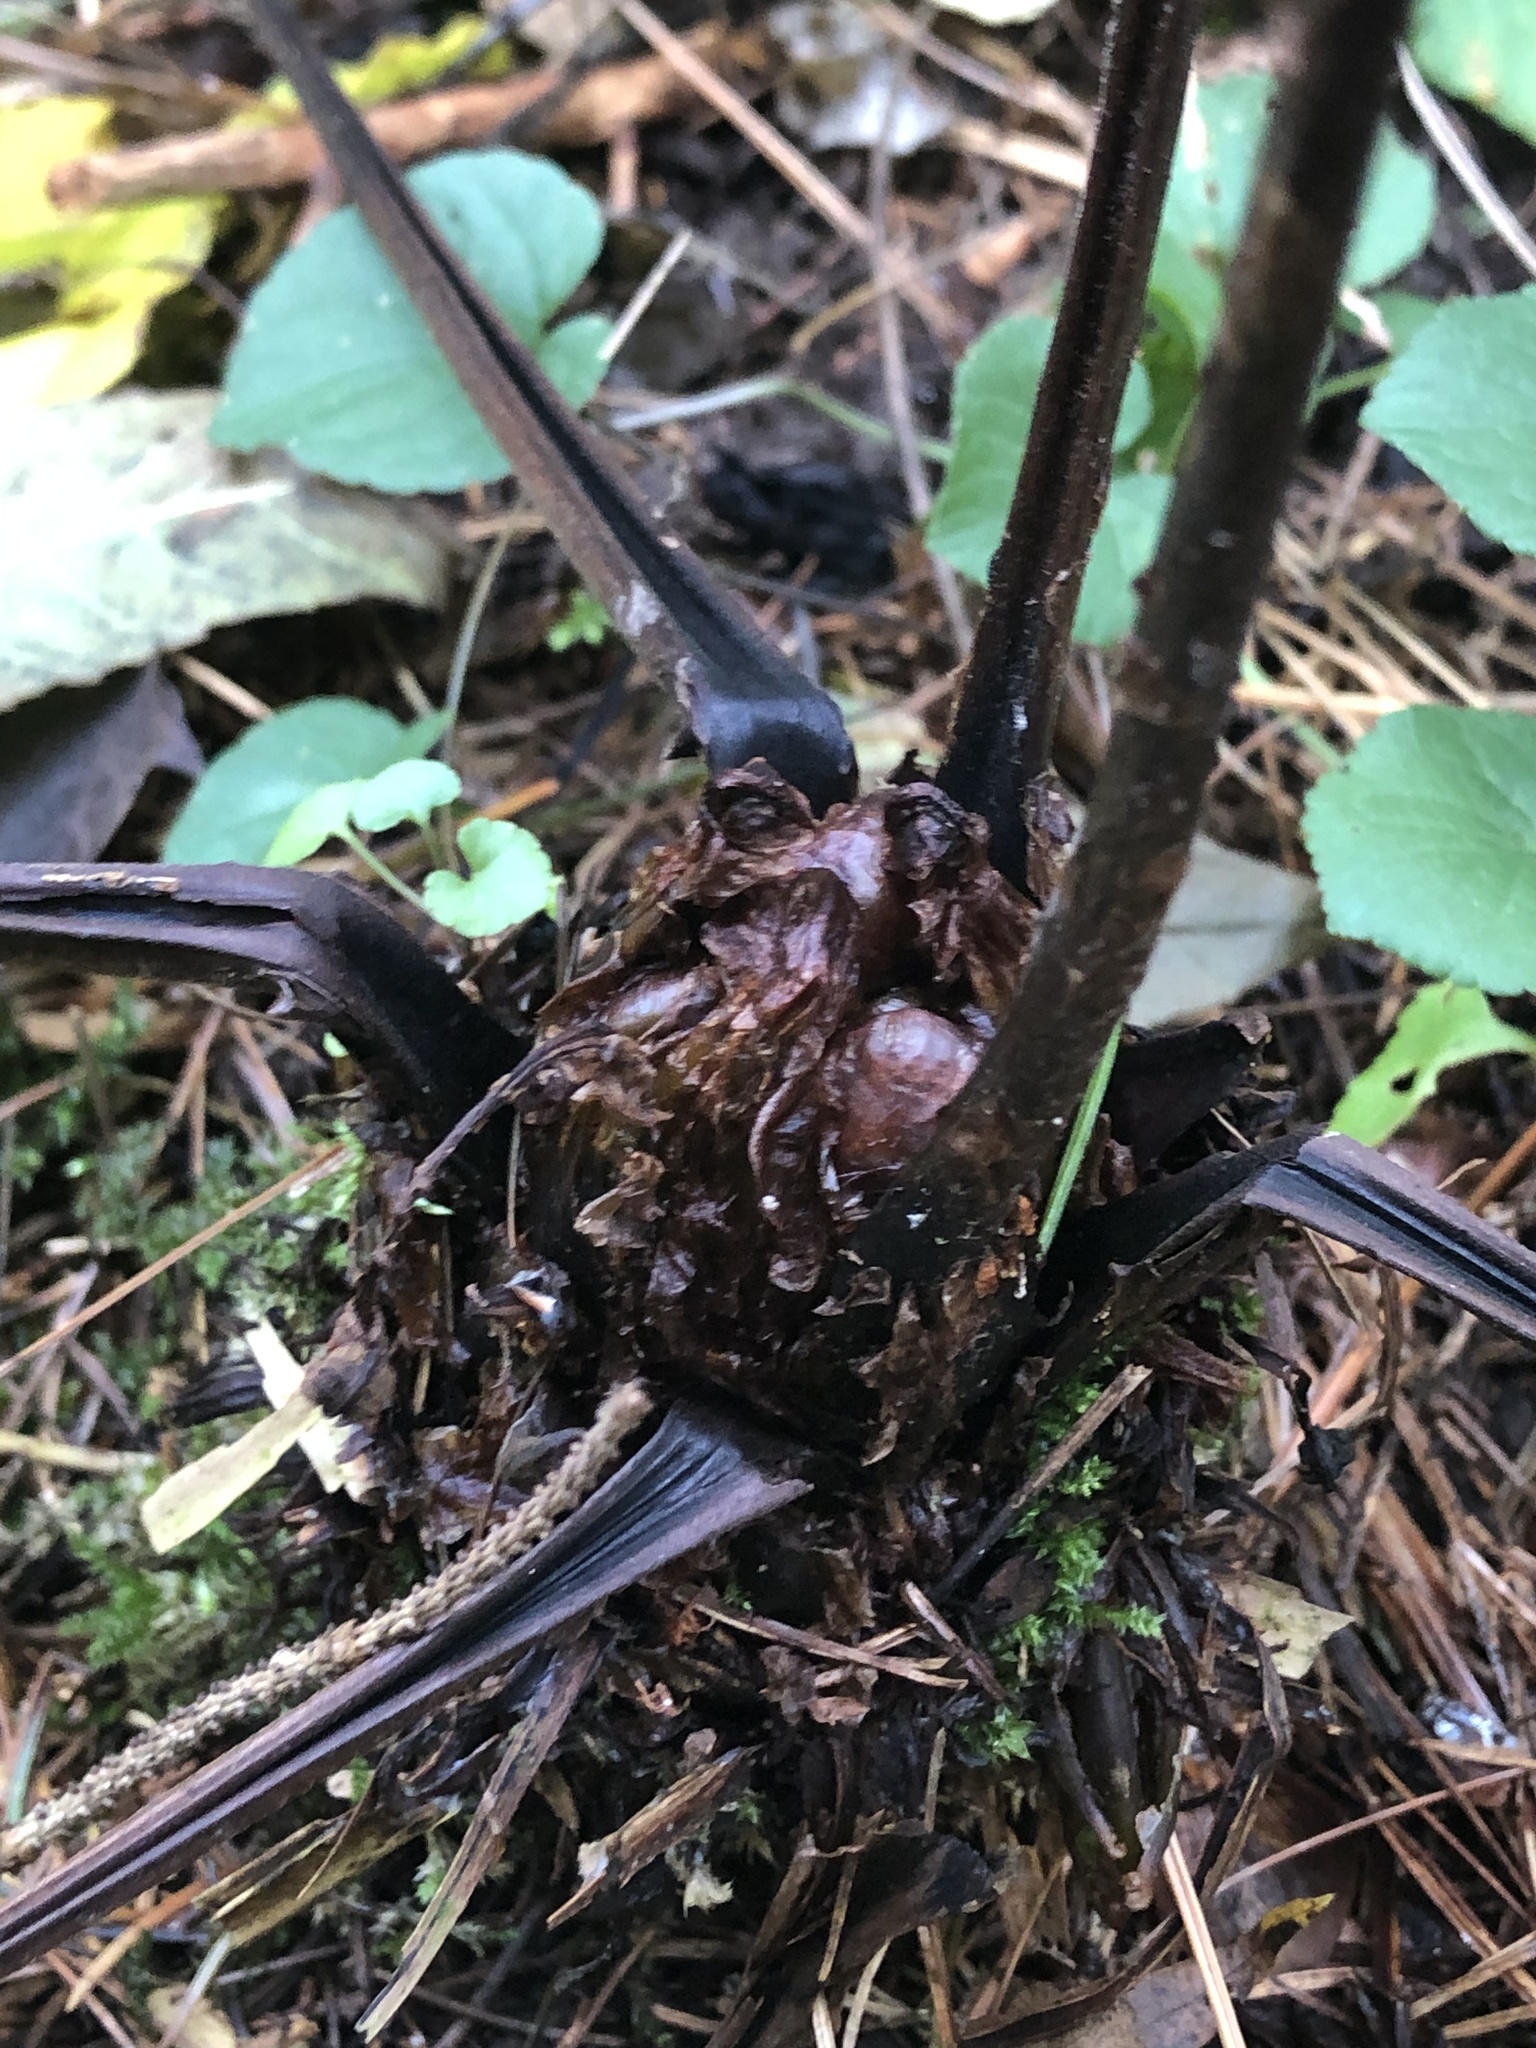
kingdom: Plantae
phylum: Tracheophyta
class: Polypodiopsida
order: Polypodiales
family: Onocleaceae
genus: Matteuccia
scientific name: Matteuccia struthiopteris
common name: Ostrich fern
